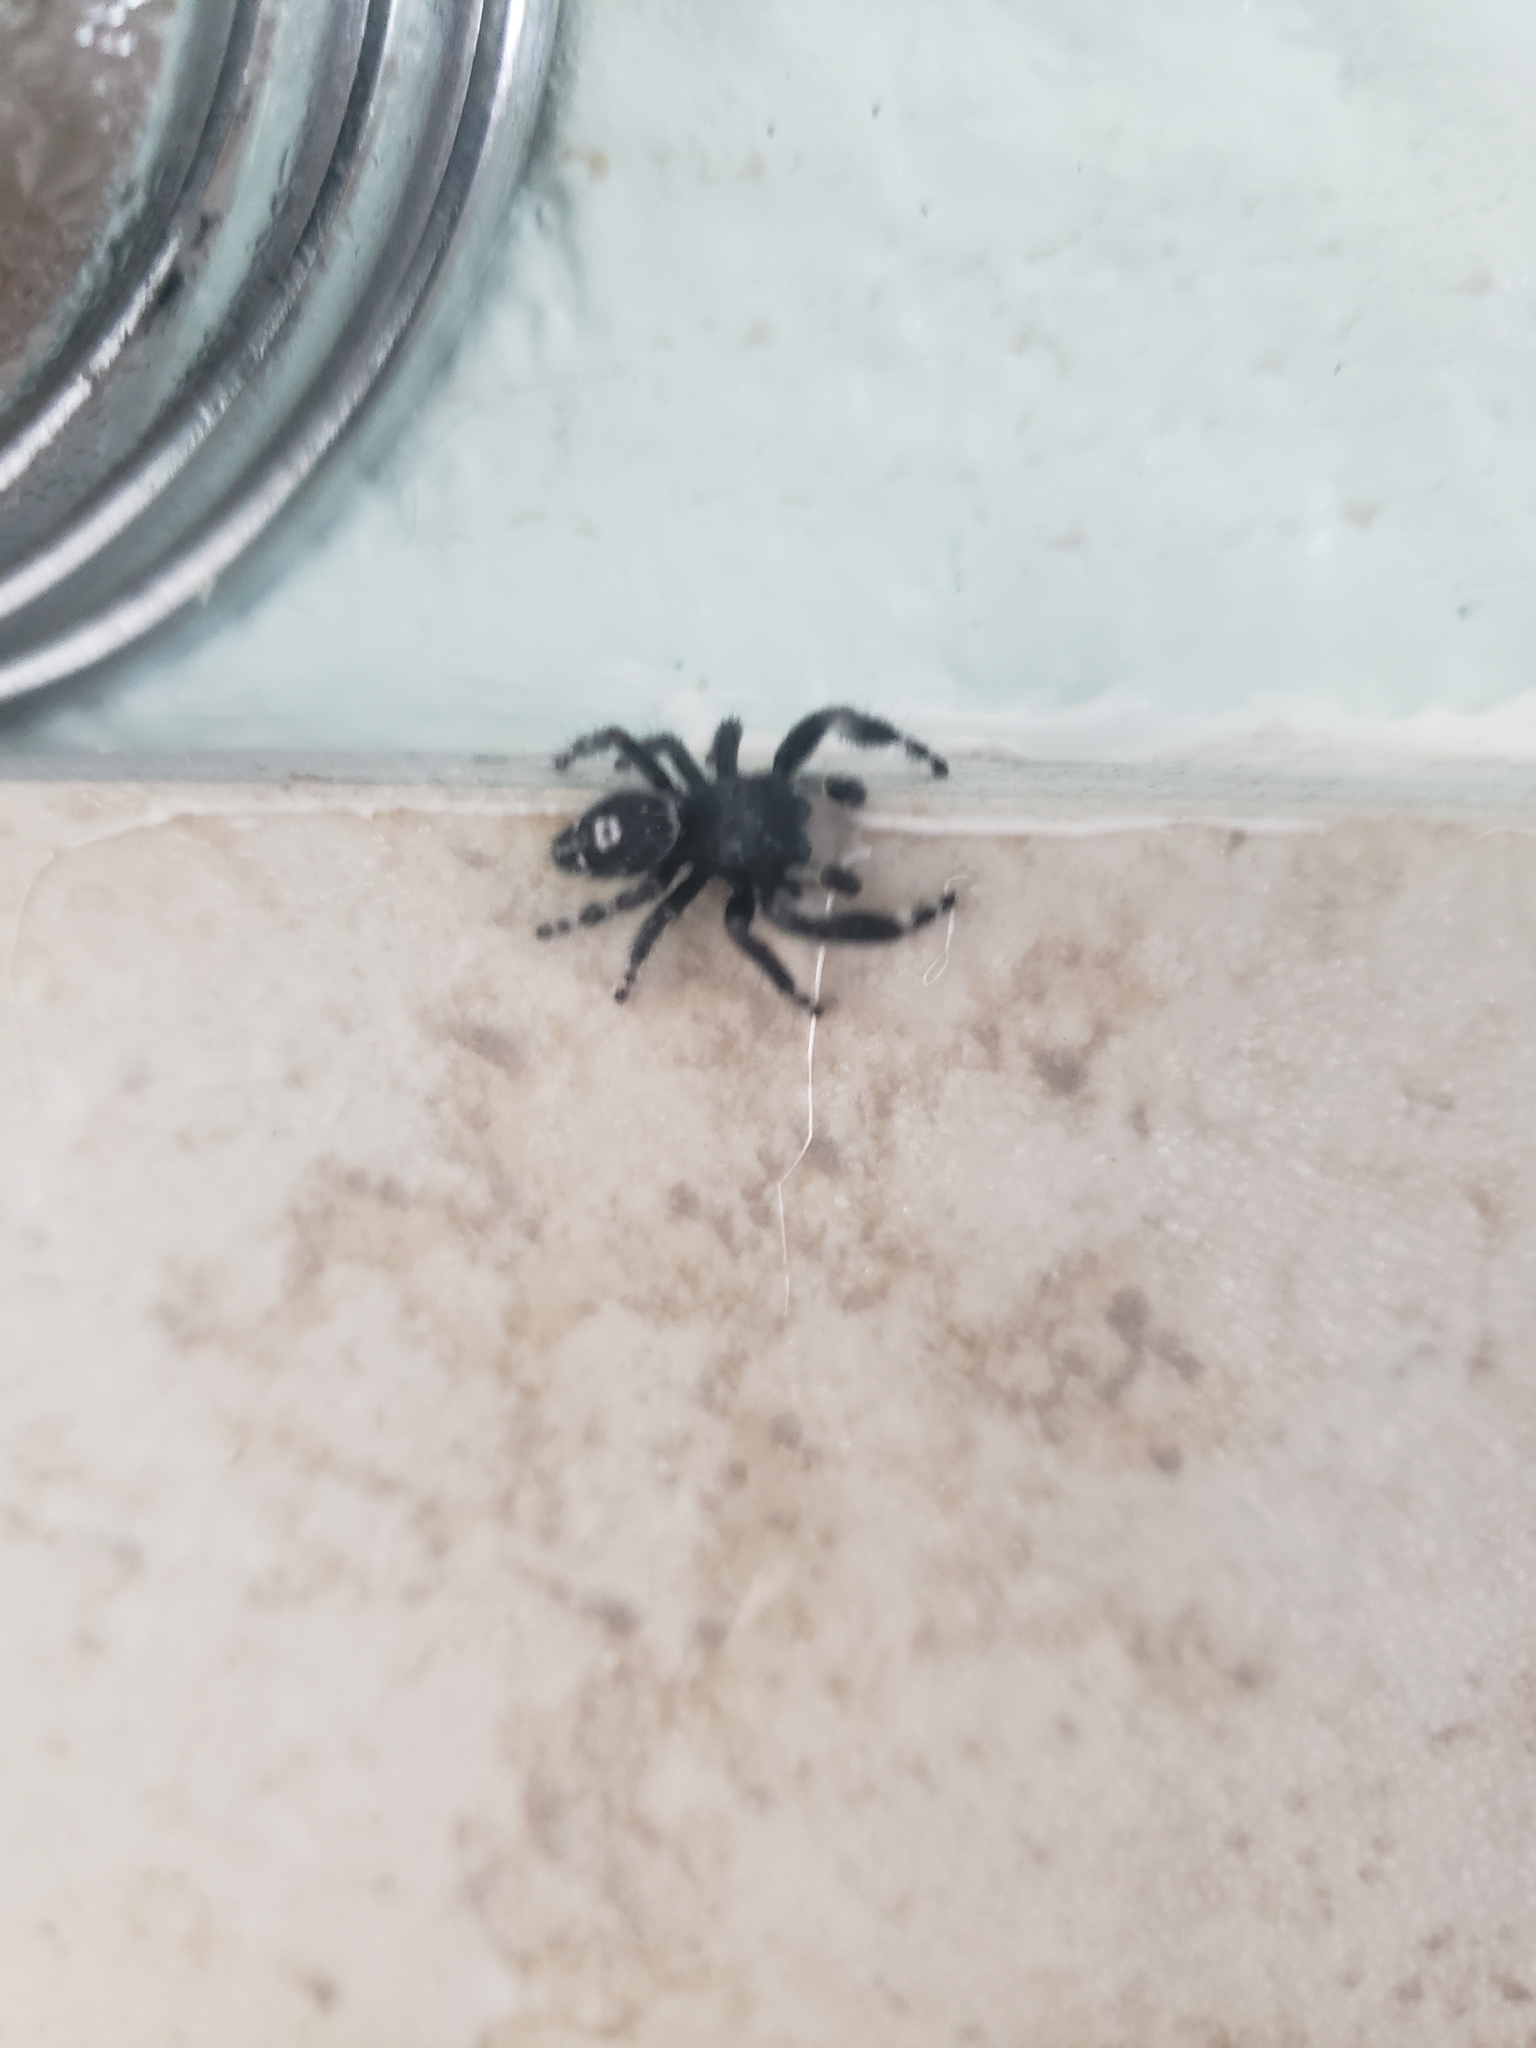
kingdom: Animalia
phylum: Arthropoda
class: Arachnida
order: Araneae
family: Salticidae
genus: Phidippus
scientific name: Phidippus audax
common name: Bold jumper
